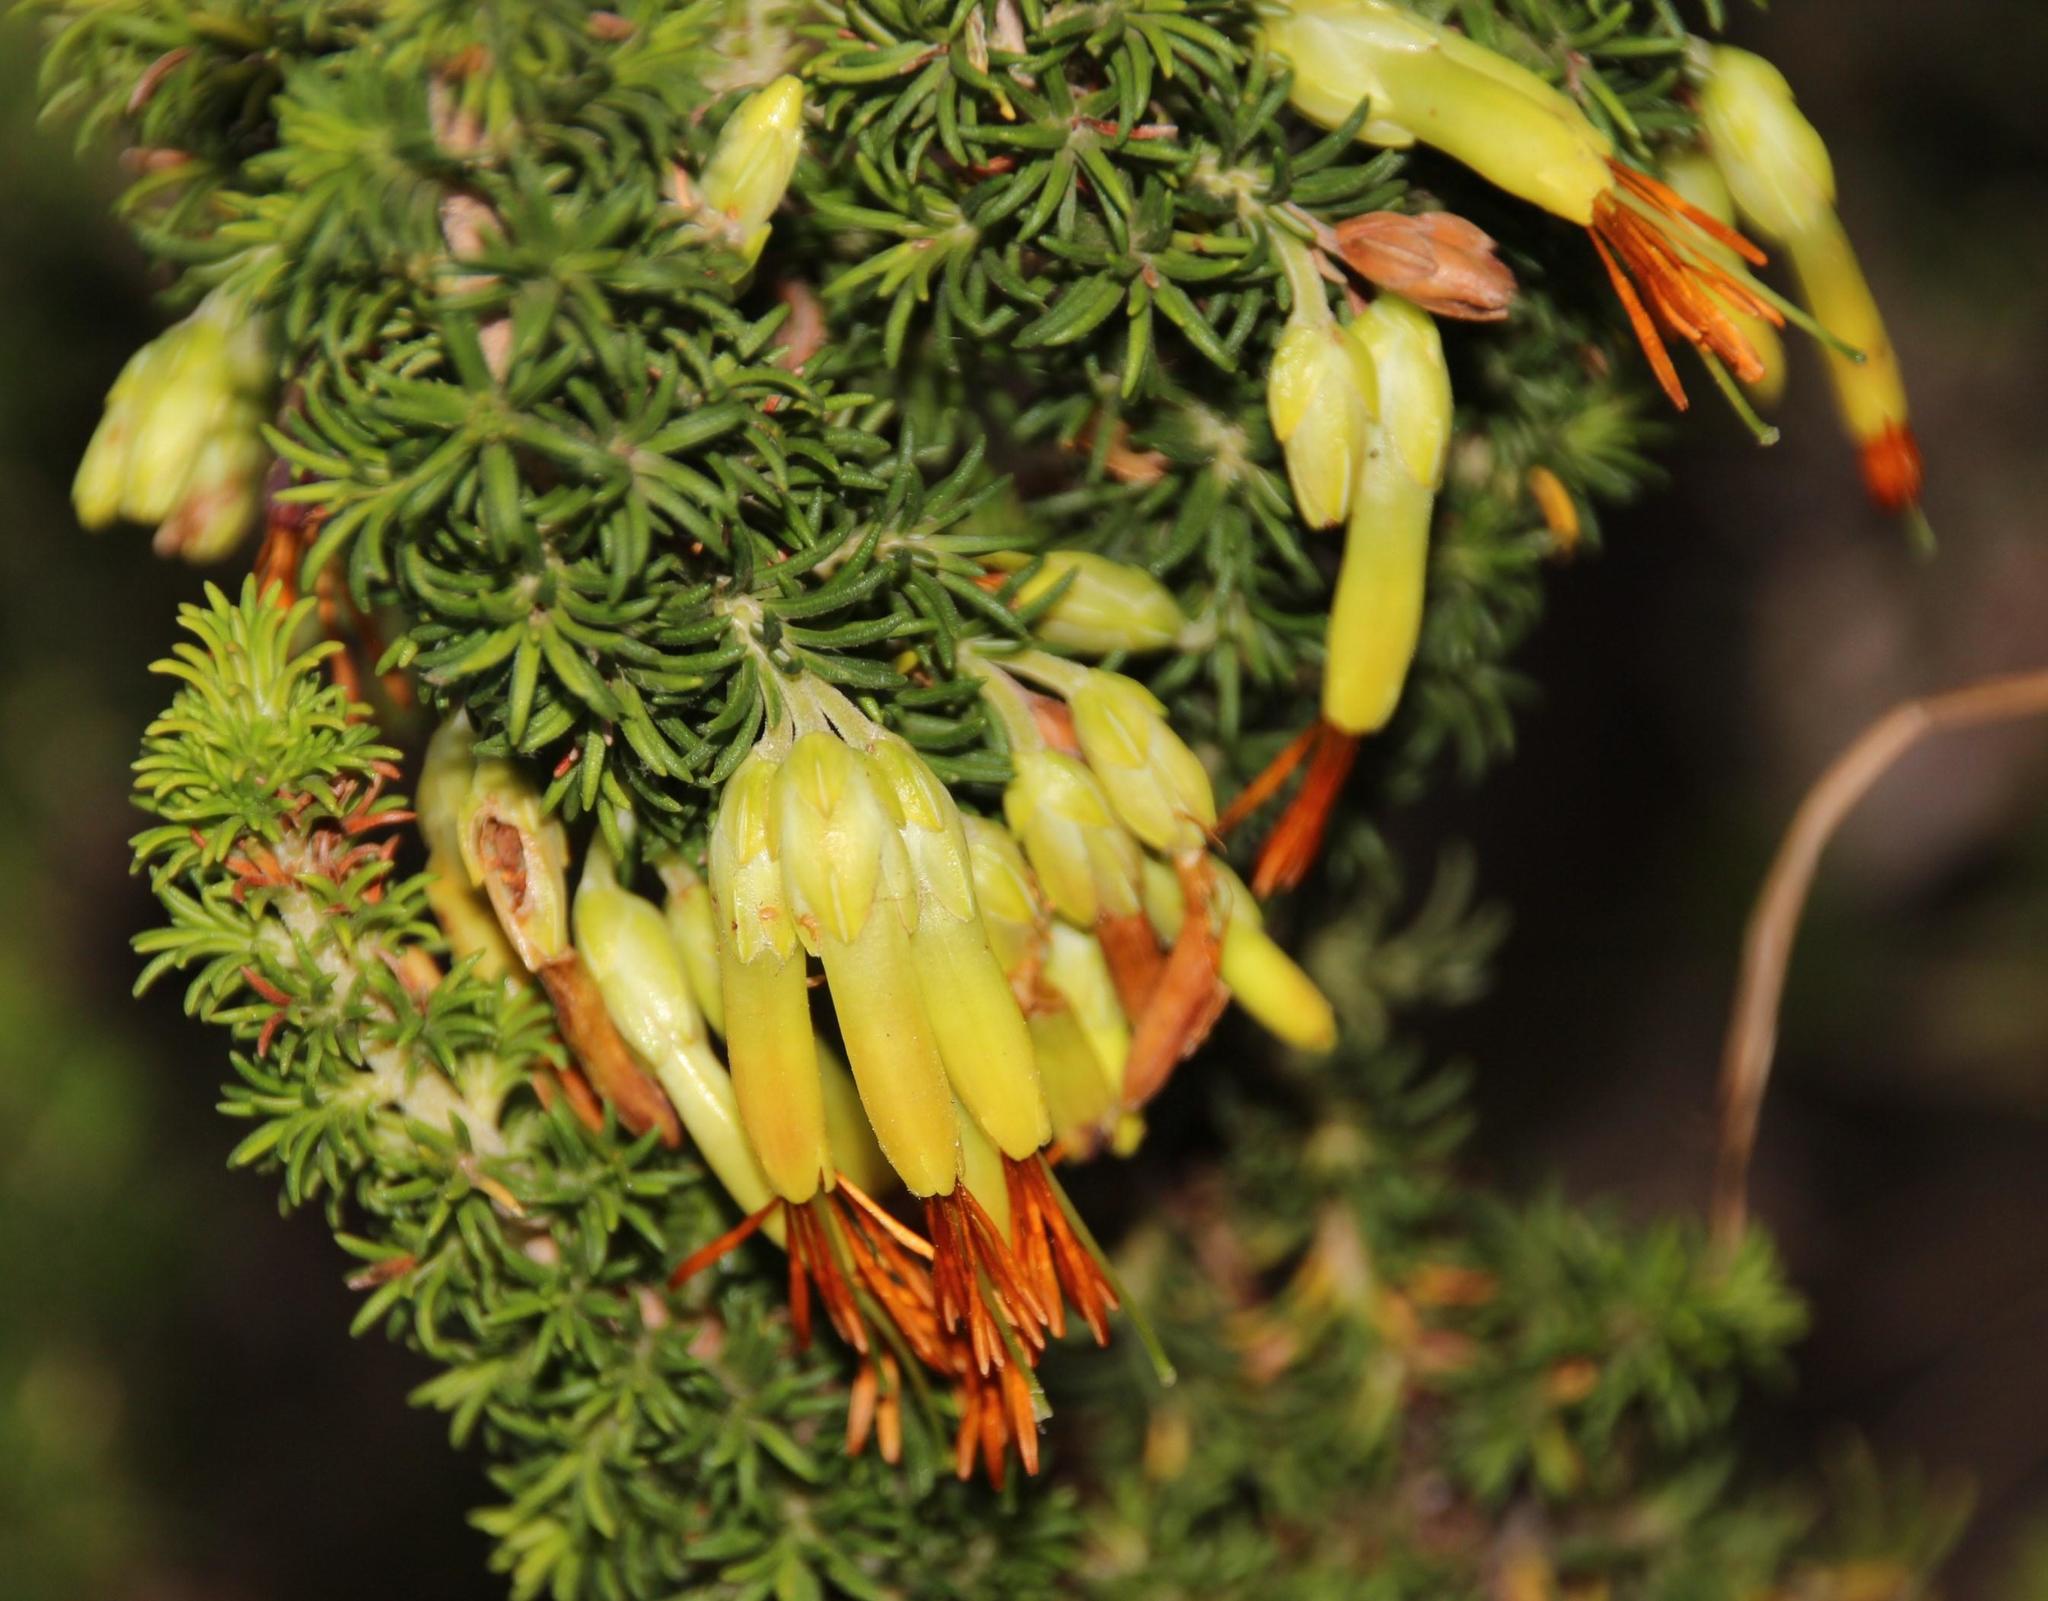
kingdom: Plantae
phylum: Tracheophyta
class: Magnoliopsida
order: Ericales
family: Ericaceae
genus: Erica
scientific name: Erica coccinea
